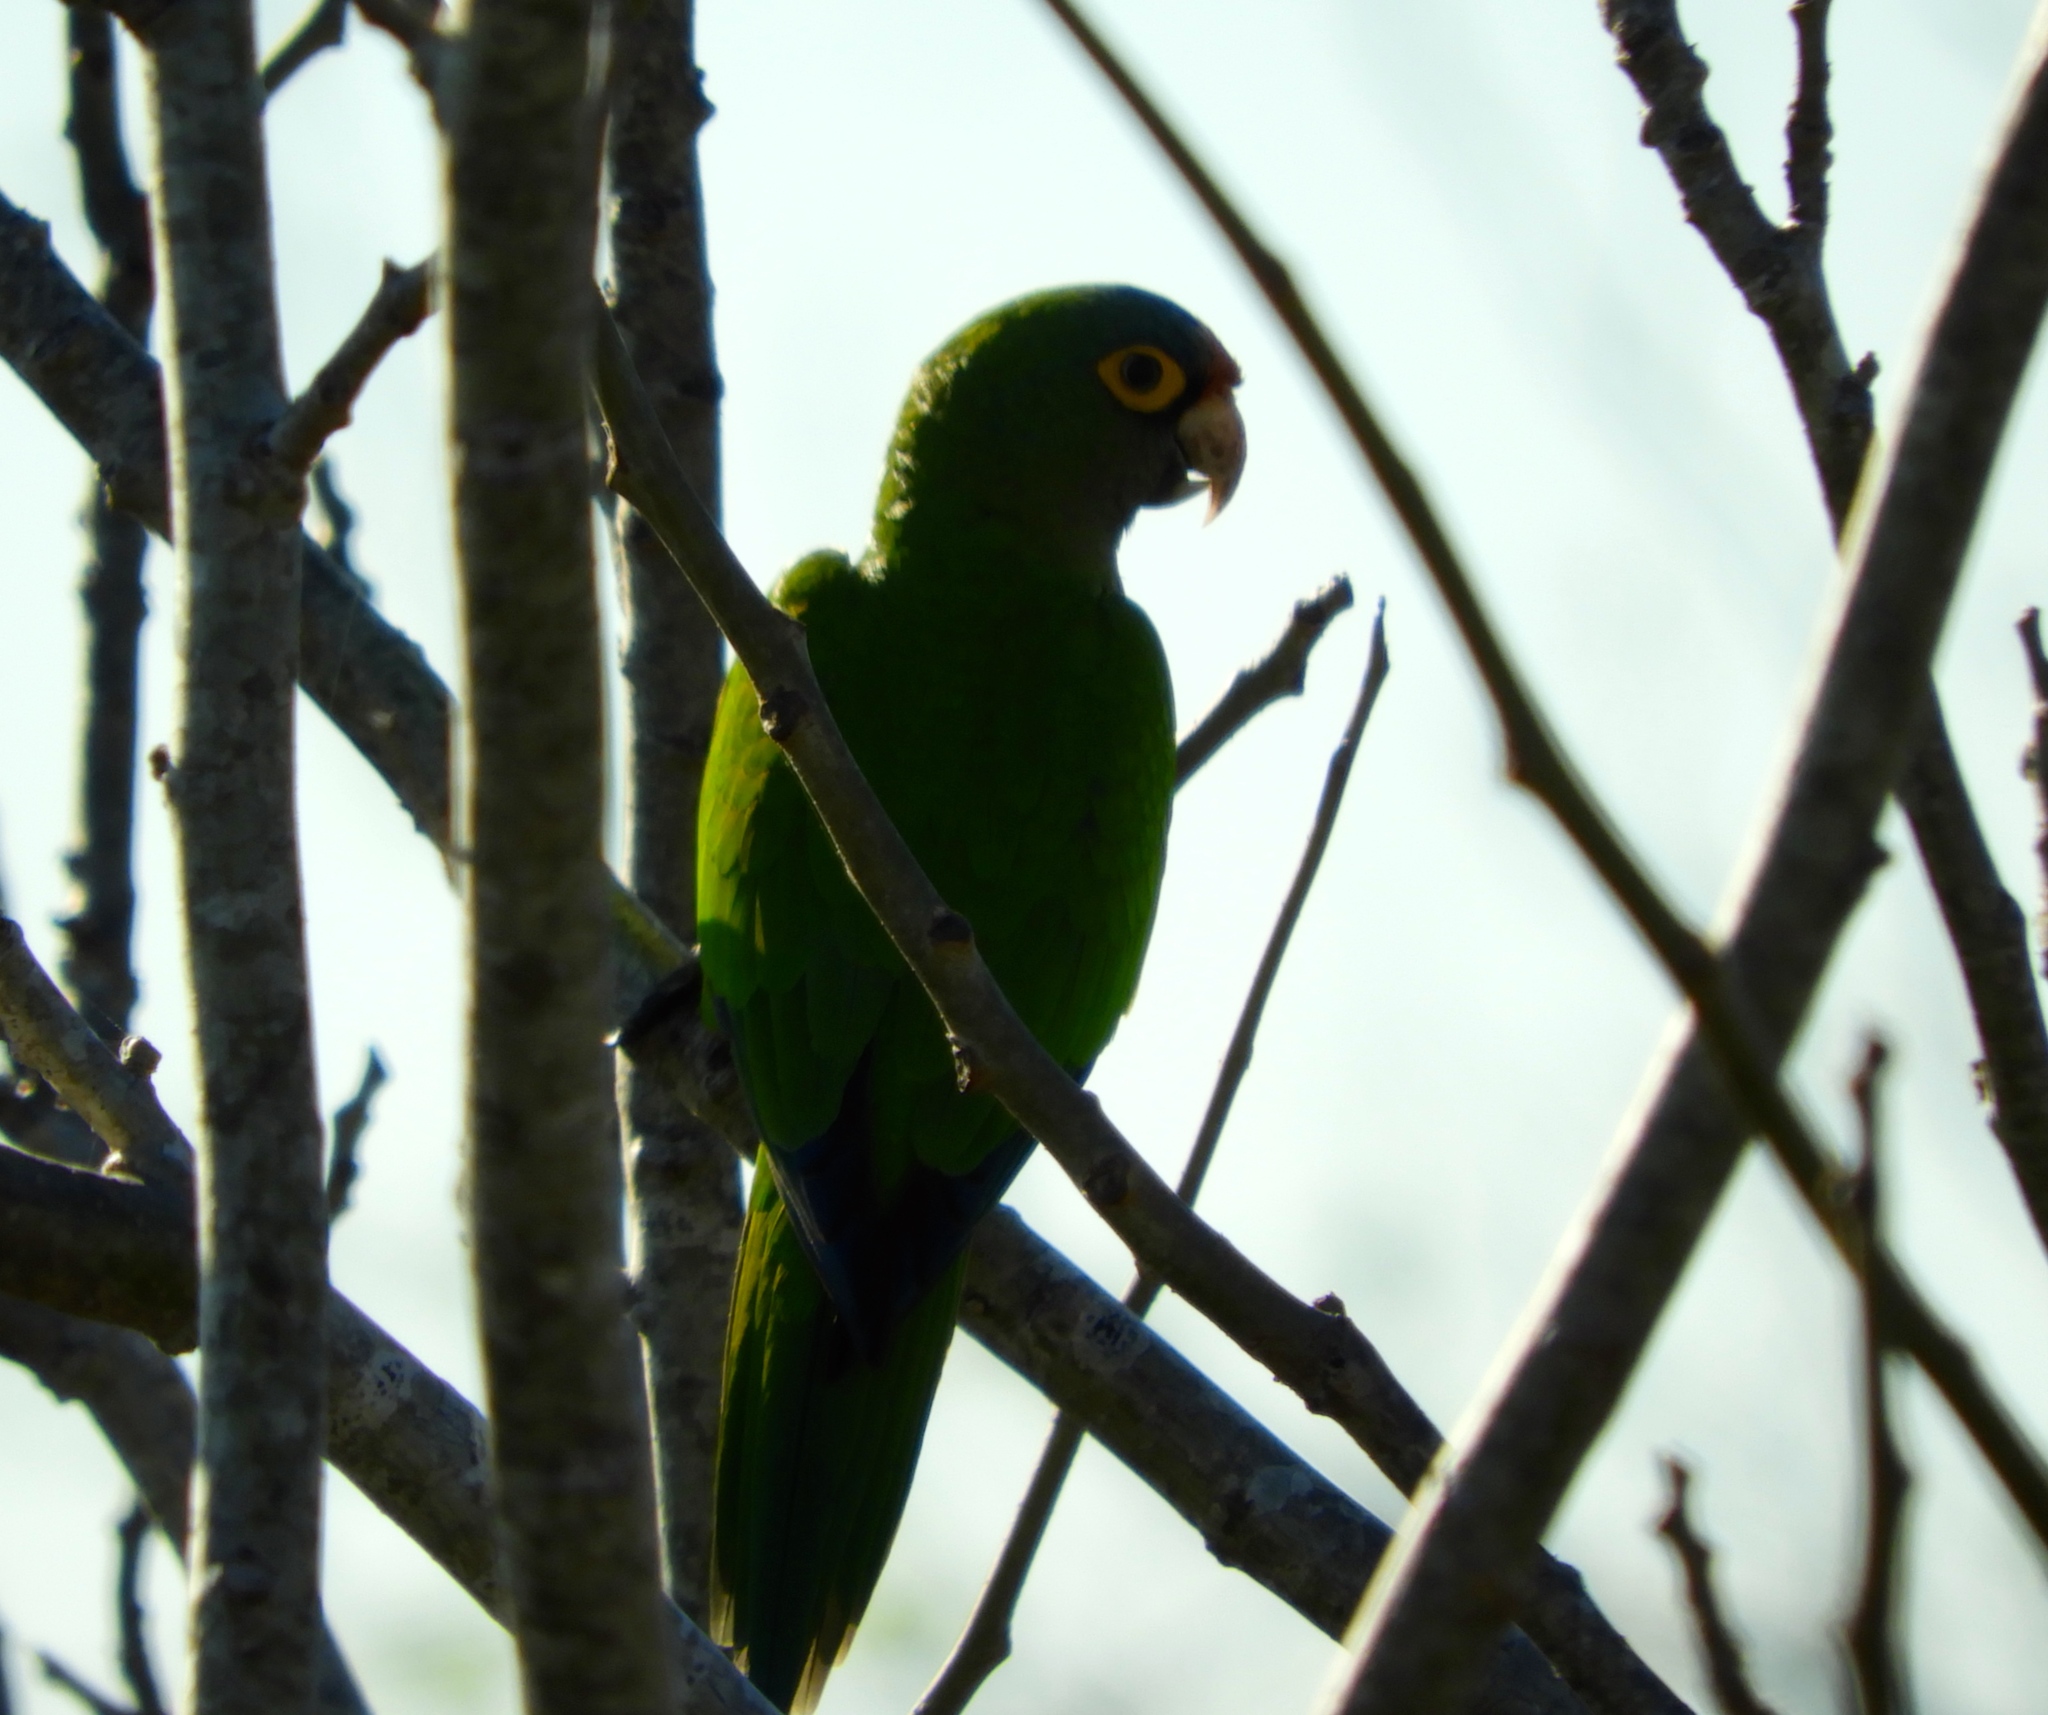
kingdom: Animalia
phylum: Chordata
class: Aves
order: Psittaciformes
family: Psittacidae
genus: Aratinga
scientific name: Aratinga canicularis
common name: Orange-fronted parakeet
